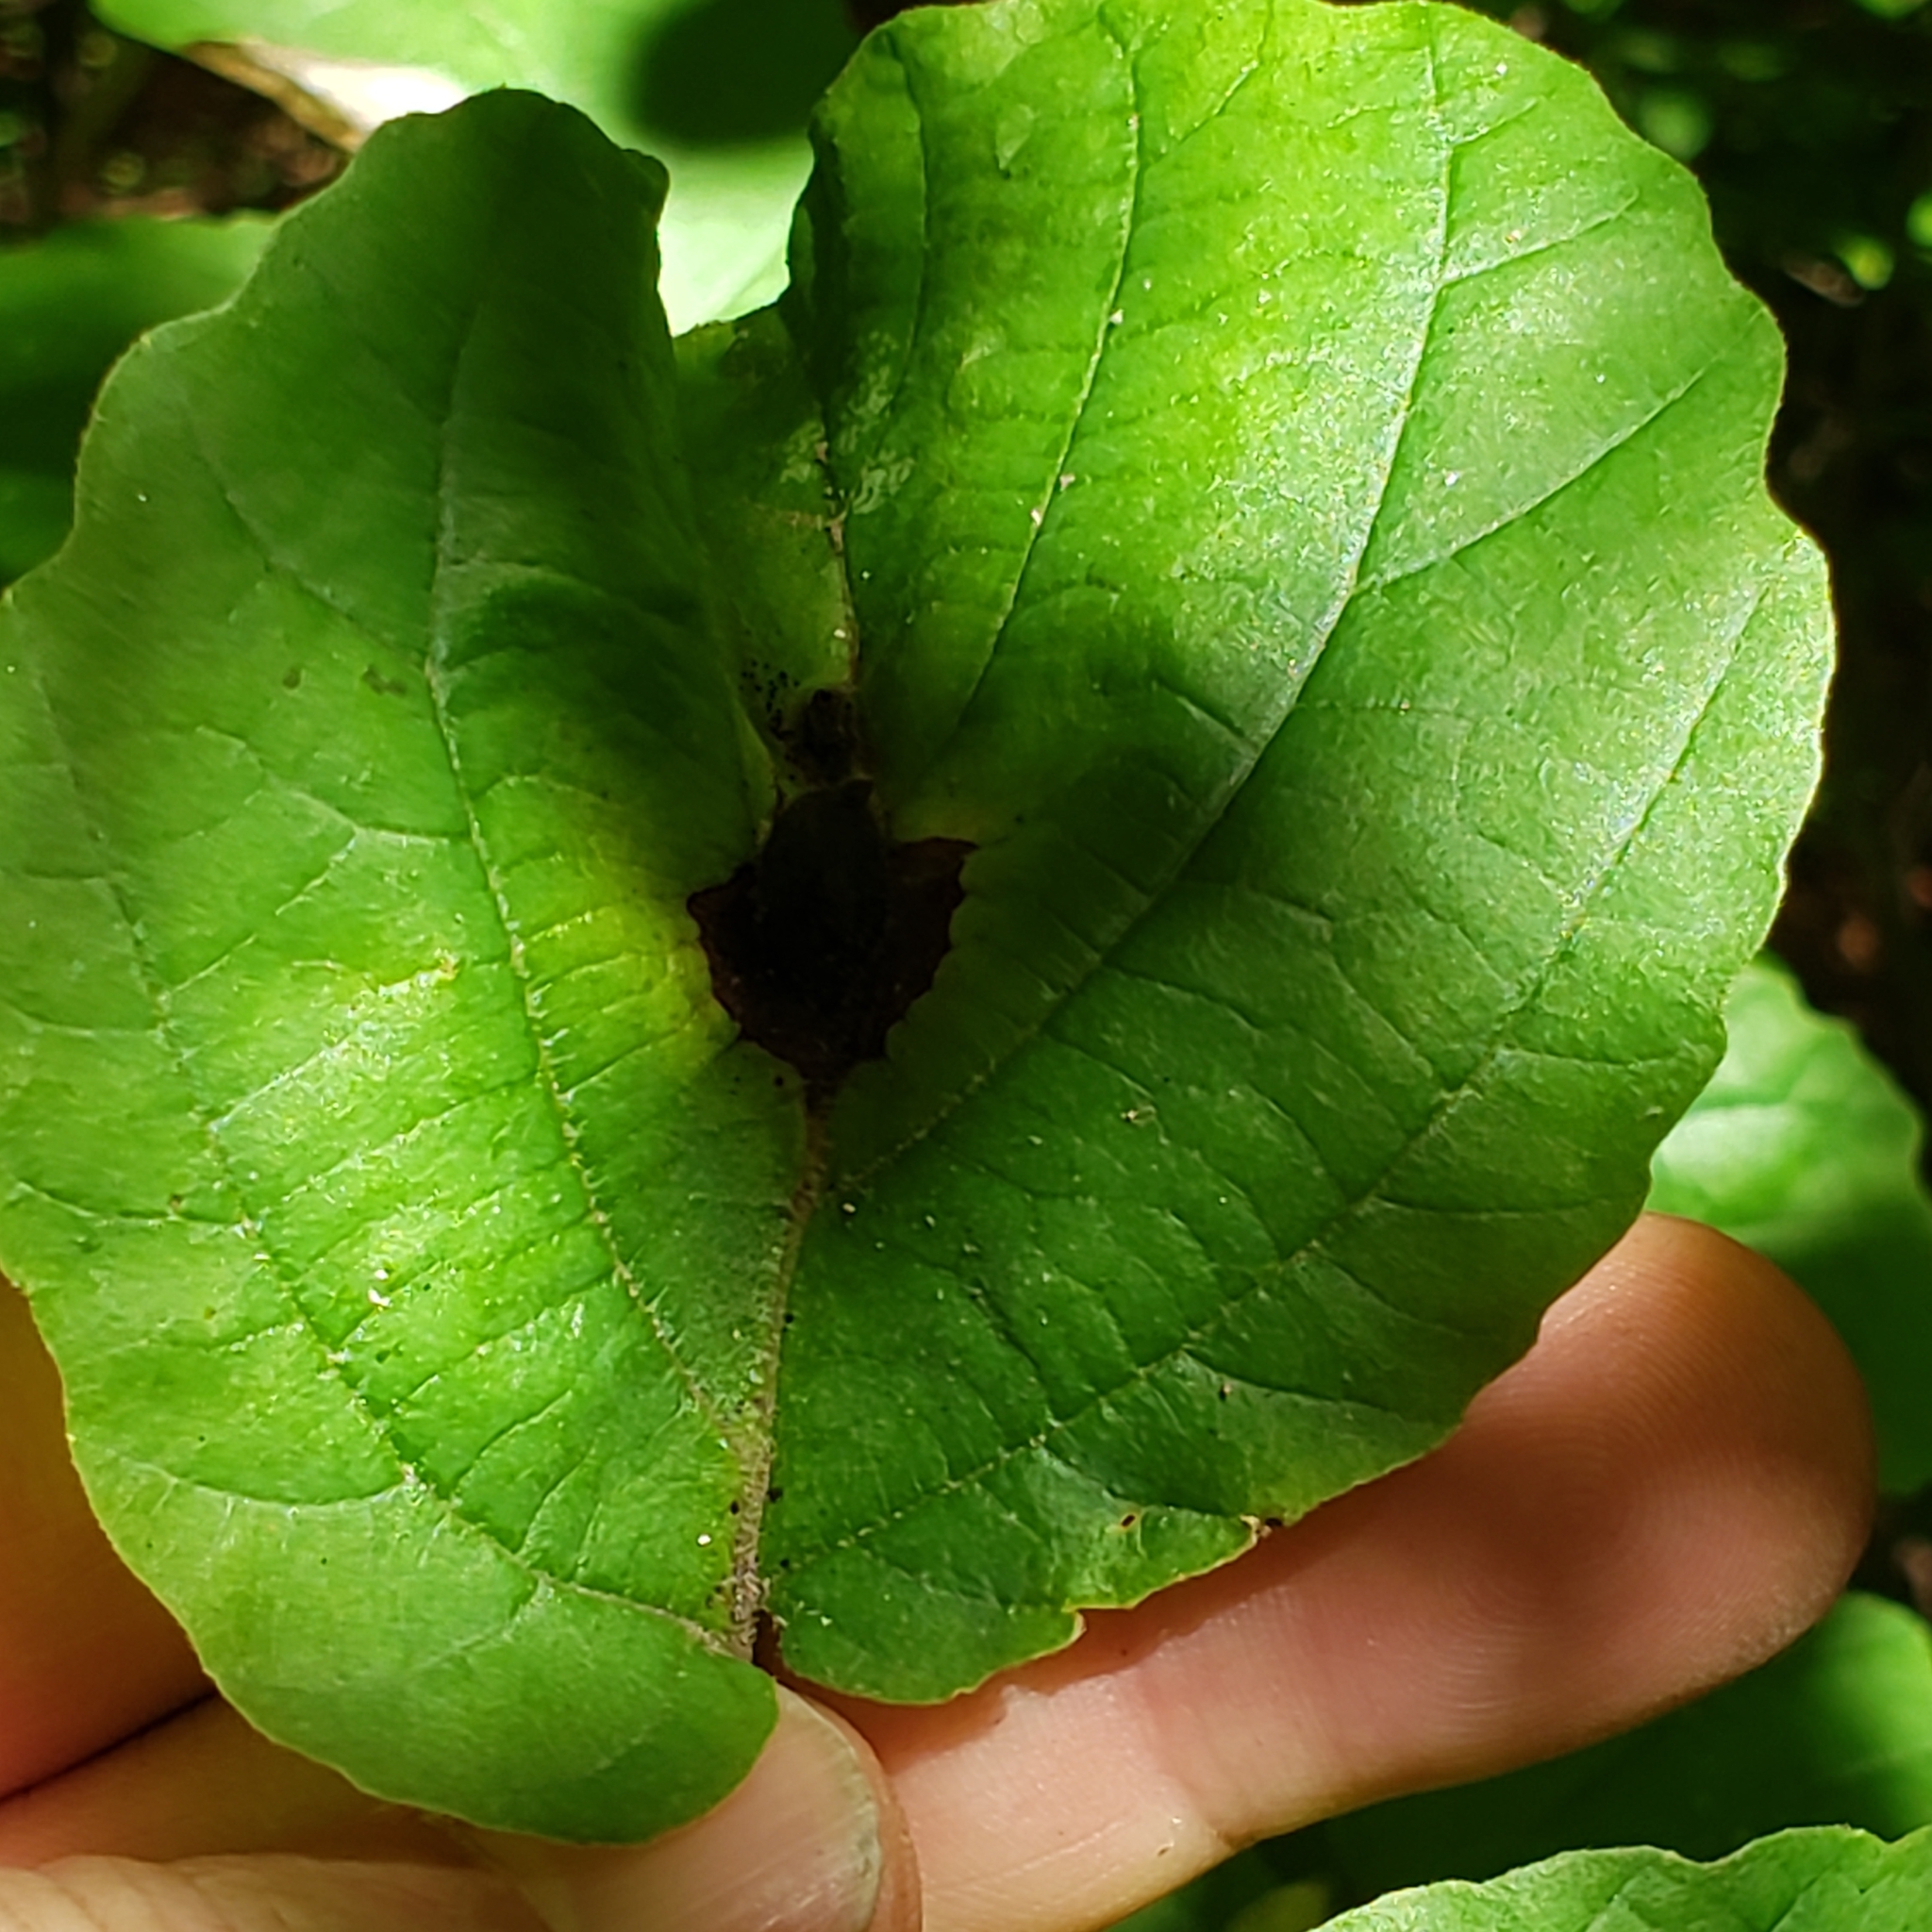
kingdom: Animalia
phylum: Arthropoda
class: Insecta
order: Hemiptera
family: Aphididae
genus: Hormaphis
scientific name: Hormaphis hamamelidis
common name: Witch-hazel cone gall aphid
